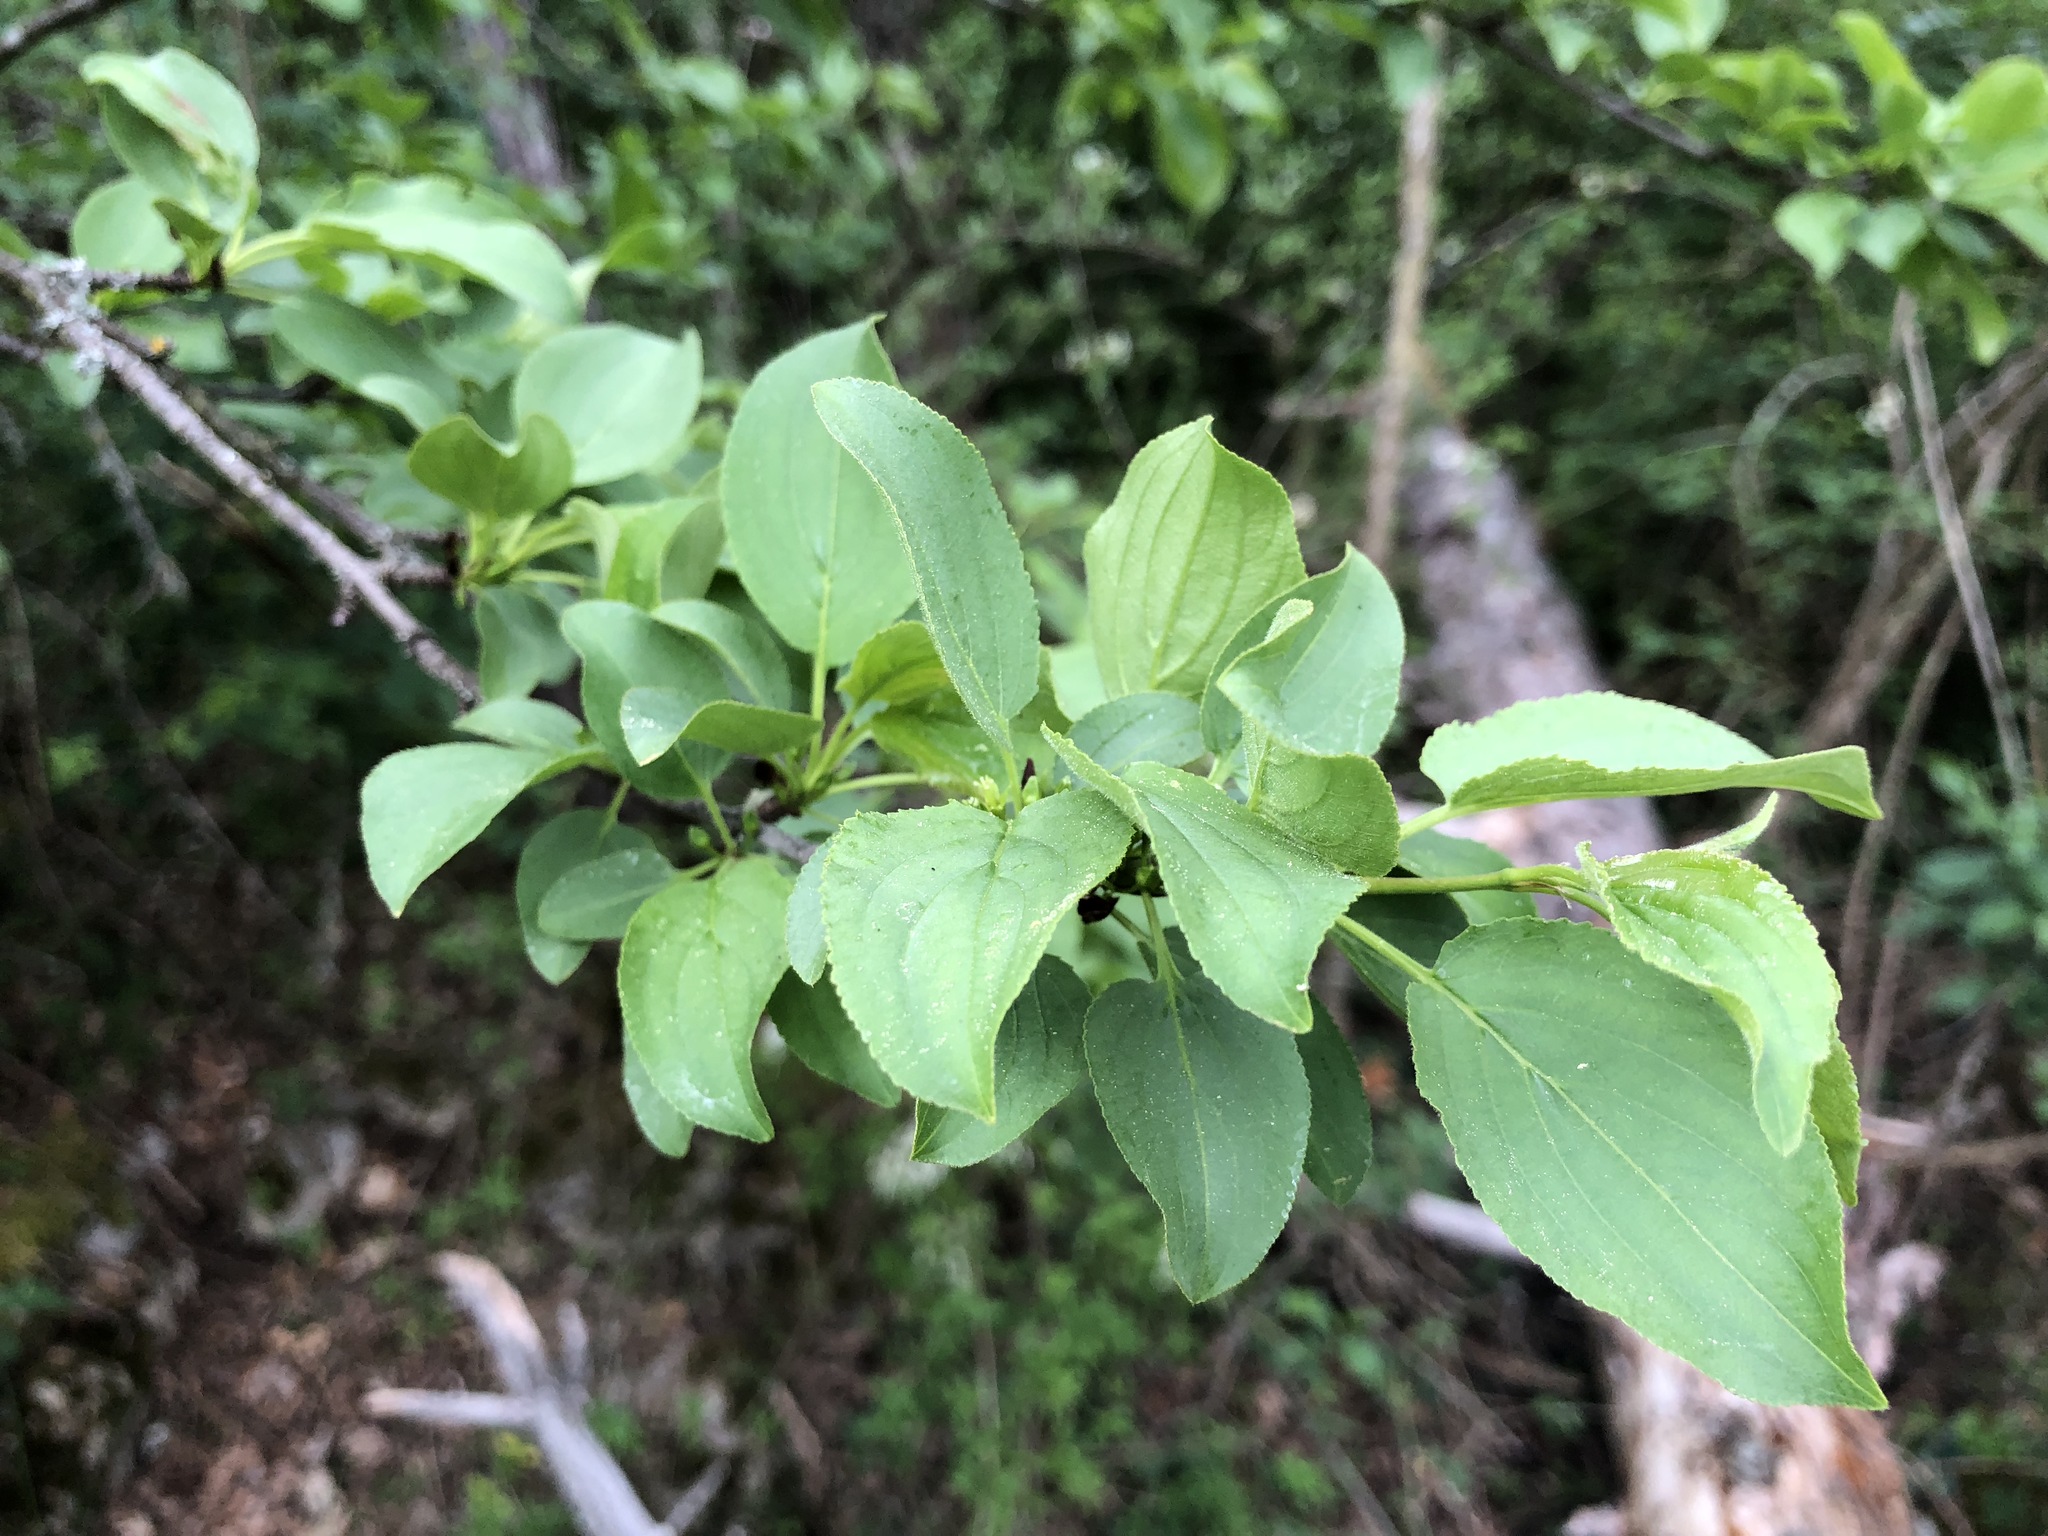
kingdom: Plantae
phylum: Tracheophyta
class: Magnoliopsida
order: Rosales
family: Rhamnaceae
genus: Rhamnus
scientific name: Rhamnus cathartica
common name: Common buckthorn
